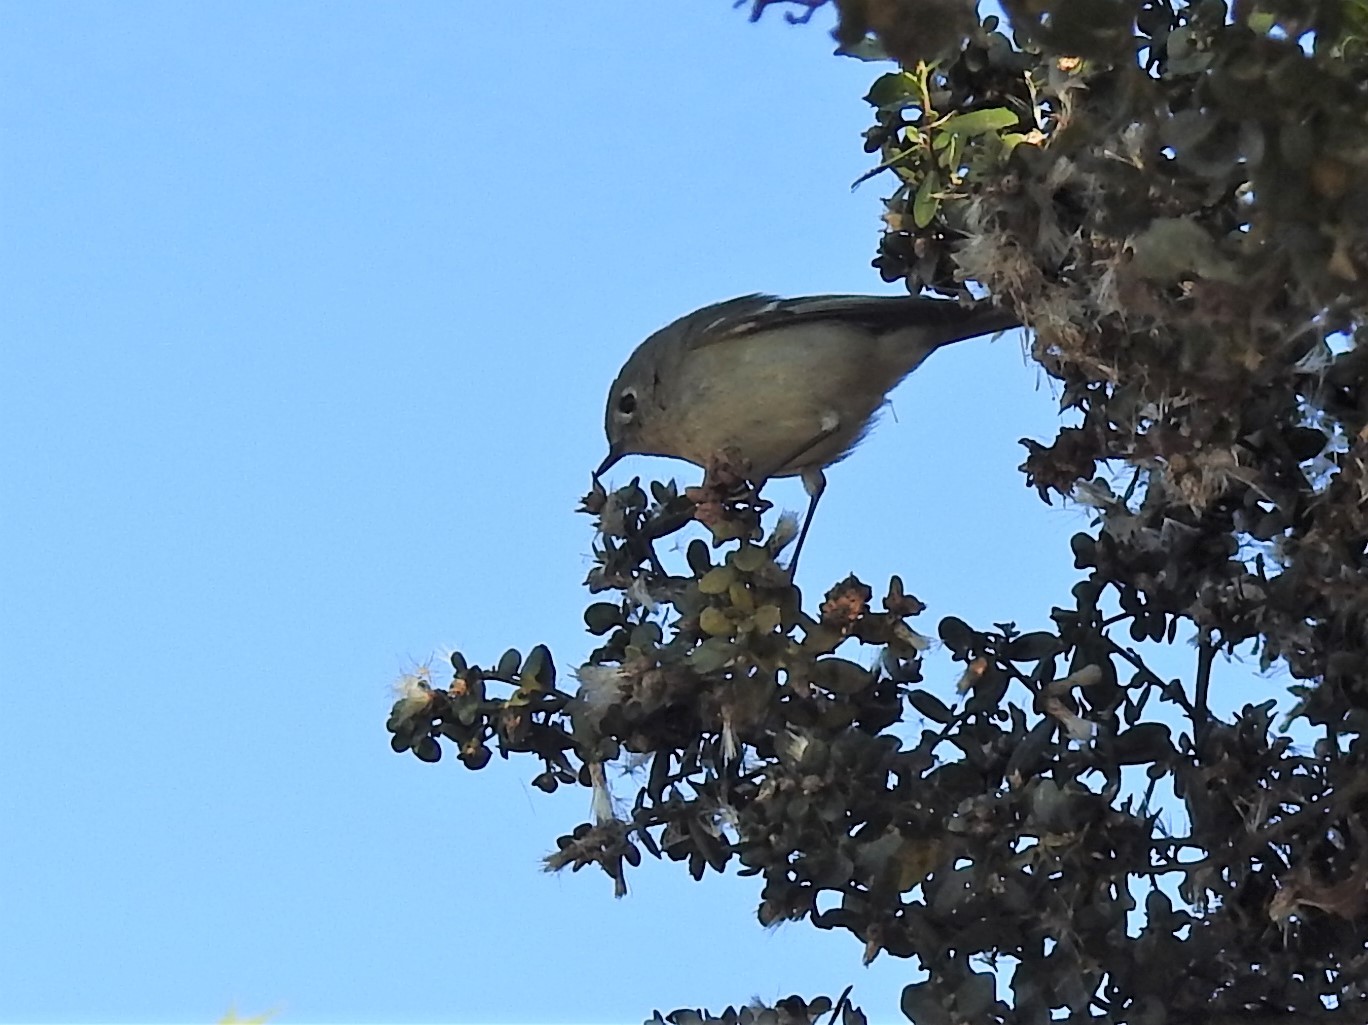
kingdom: Animalia
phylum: Chordata
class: Aves
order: Passeriformes
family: Regulidae
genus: Regulus
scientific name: Regulus calendula
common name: Ruby-crowned kinglet
